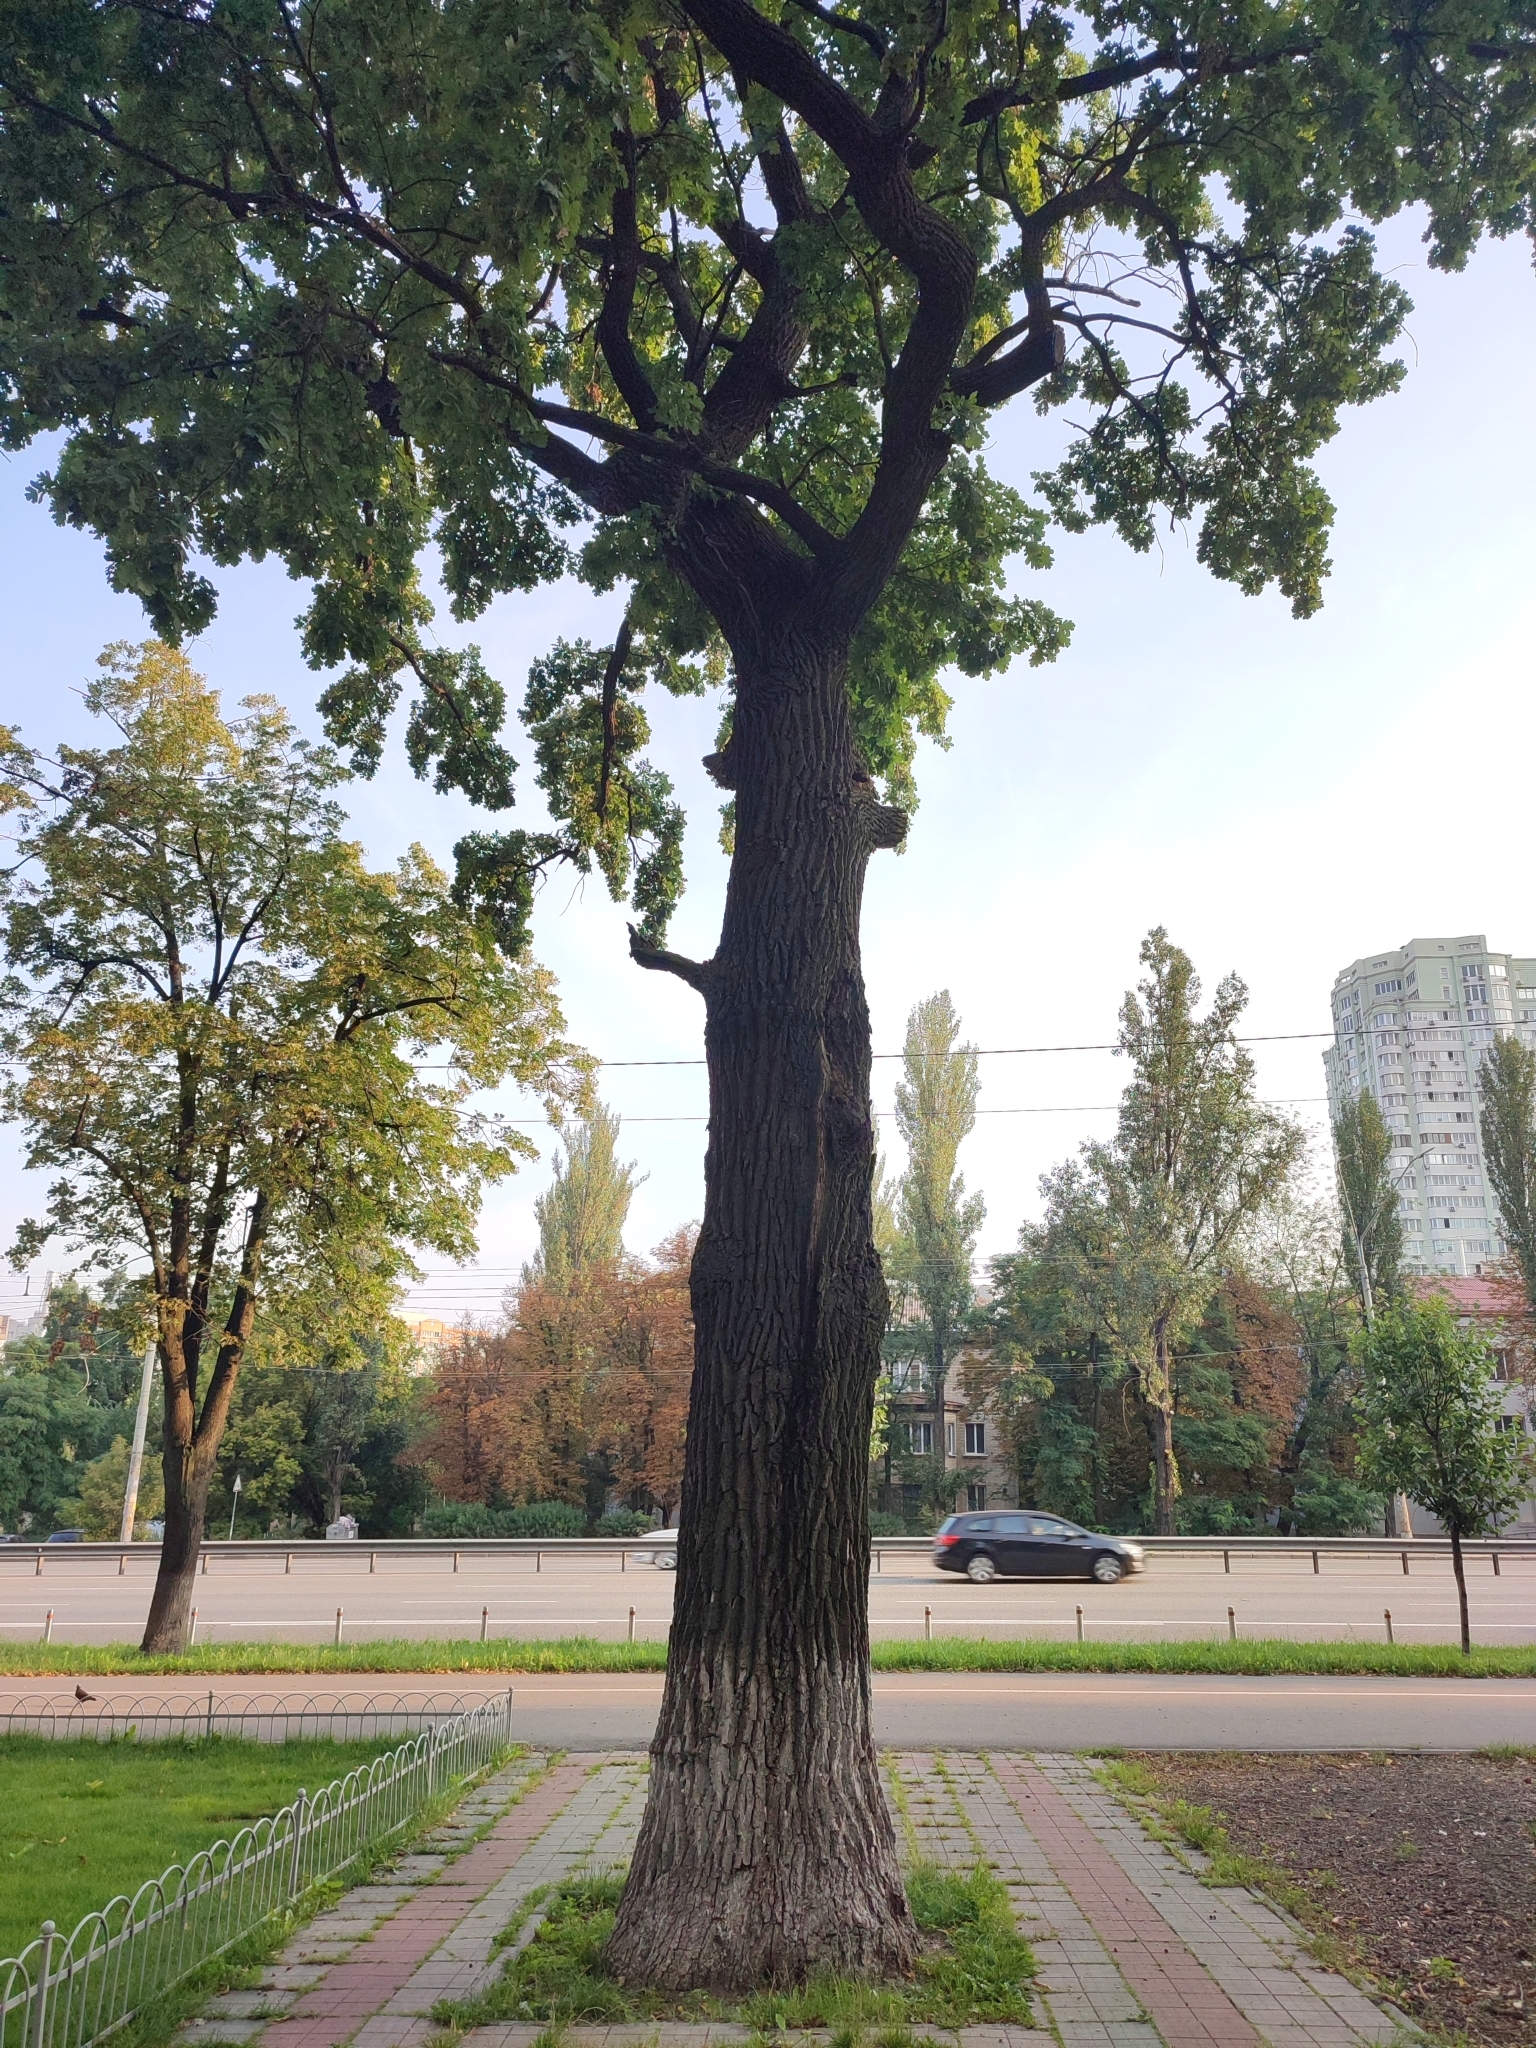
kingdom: Plantae
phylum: Tracheophyta
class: Magnoliopsida
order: Fagales
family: Fagaceae
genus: Quercus
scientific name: Quercus robur
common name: Pedunculate oak
